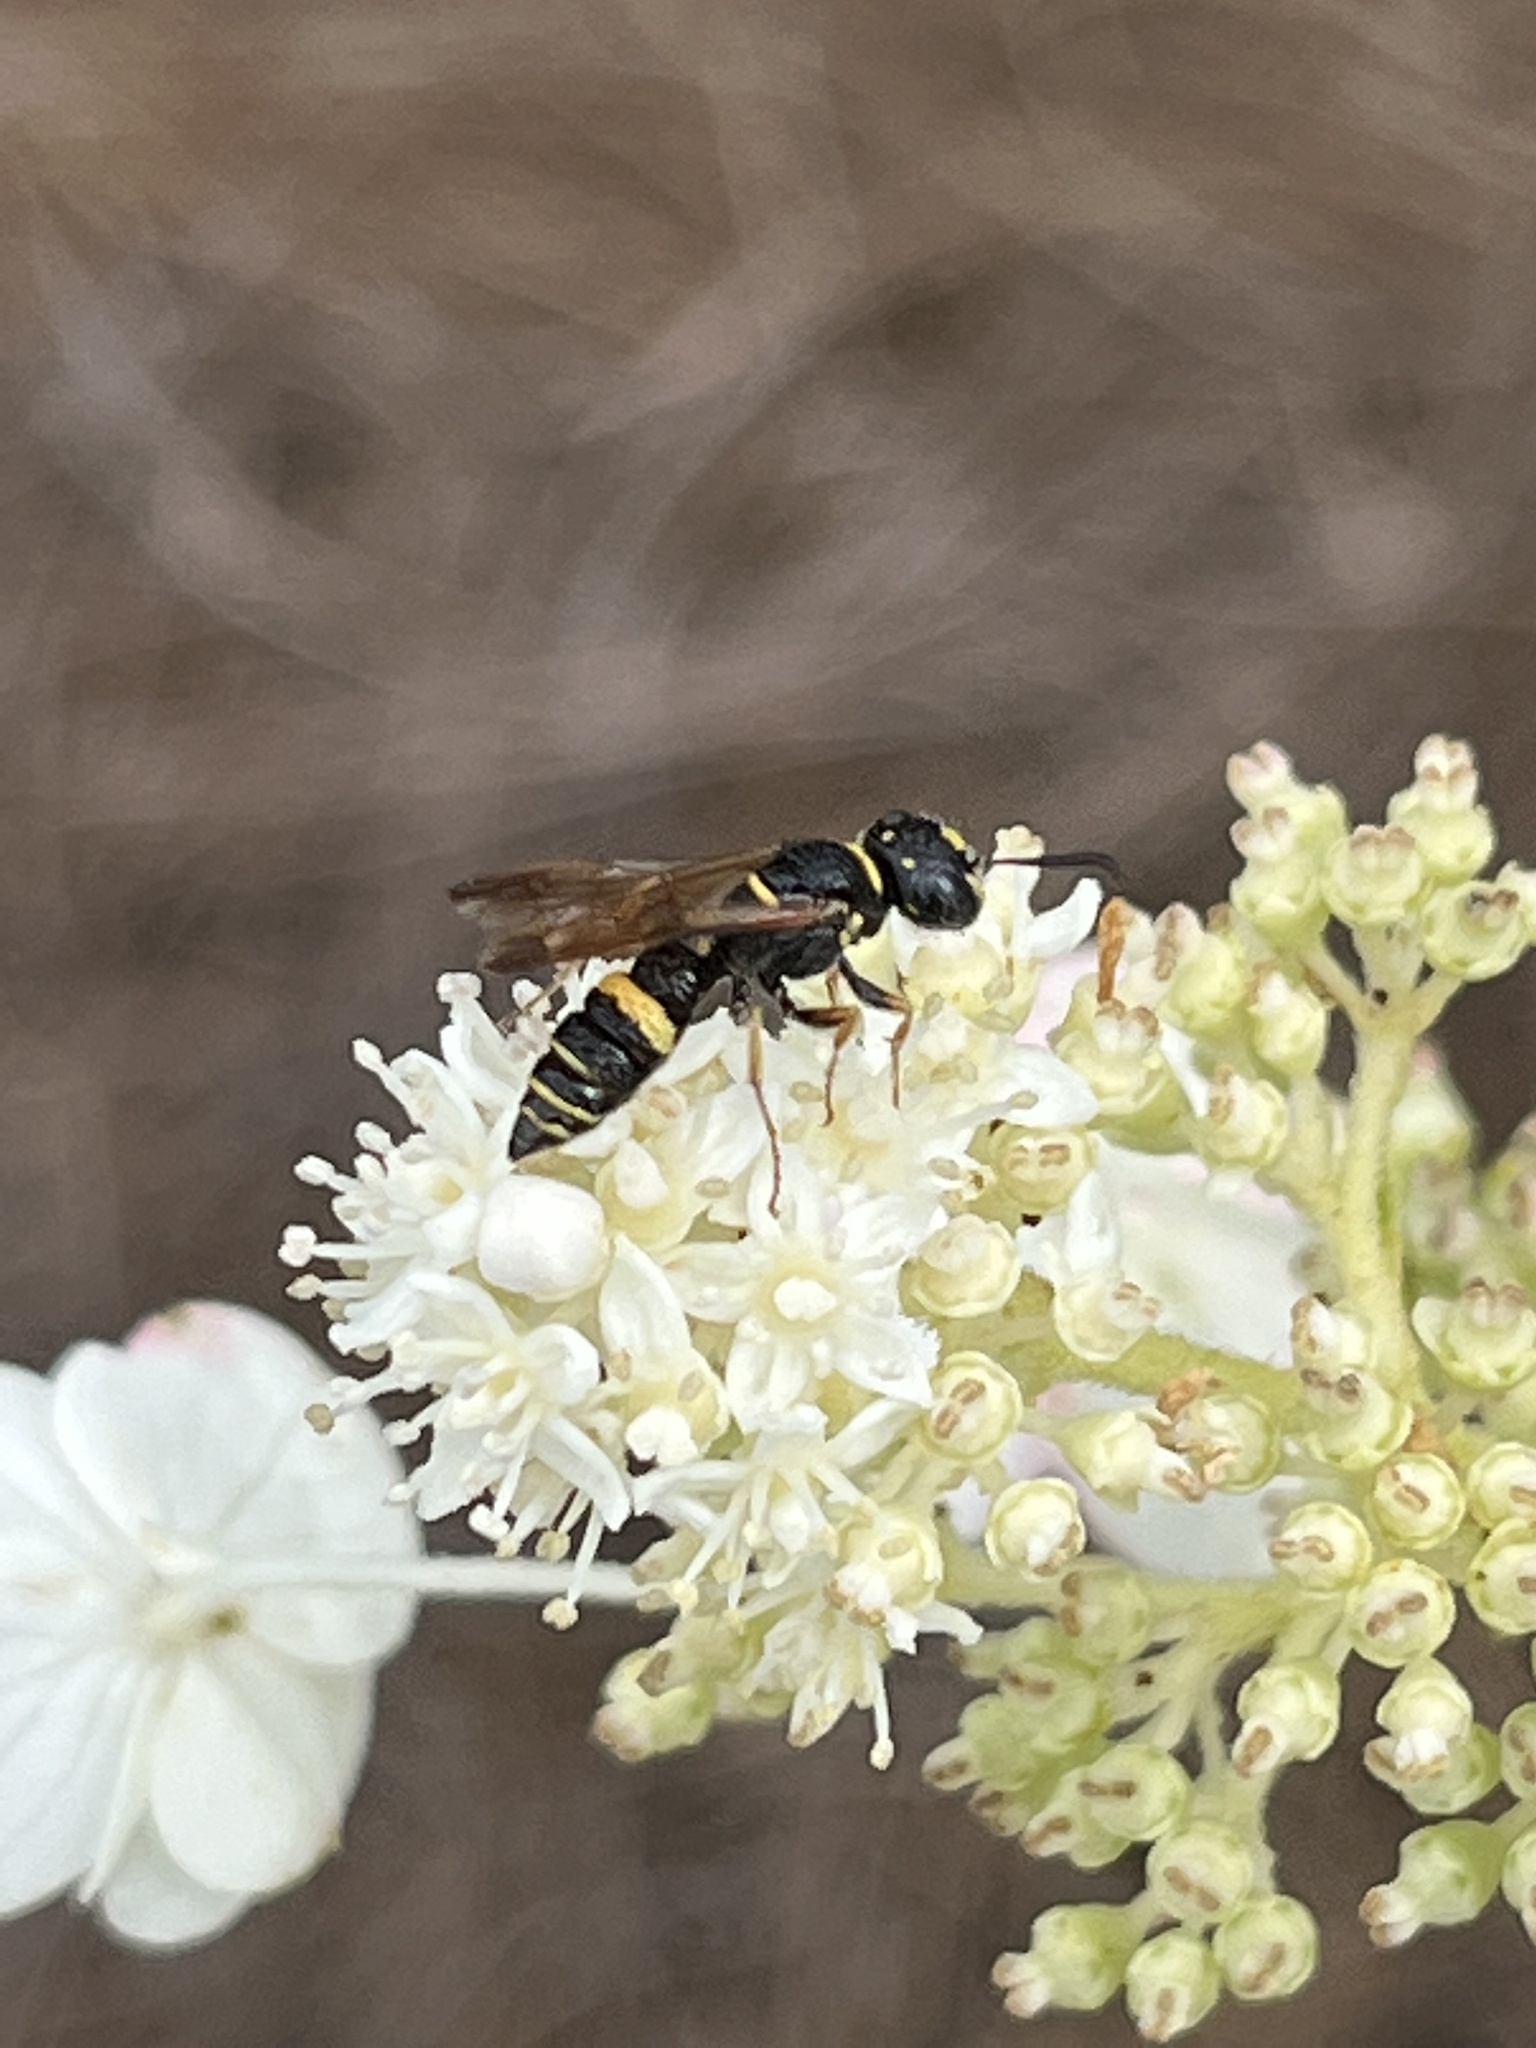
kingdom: Animalia
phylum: Arthropoda
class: Insecta
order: Hymenoptera
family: Crabronidae
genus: Philanthus
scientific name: Philanthus gibbosus
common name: Humped beewolf
